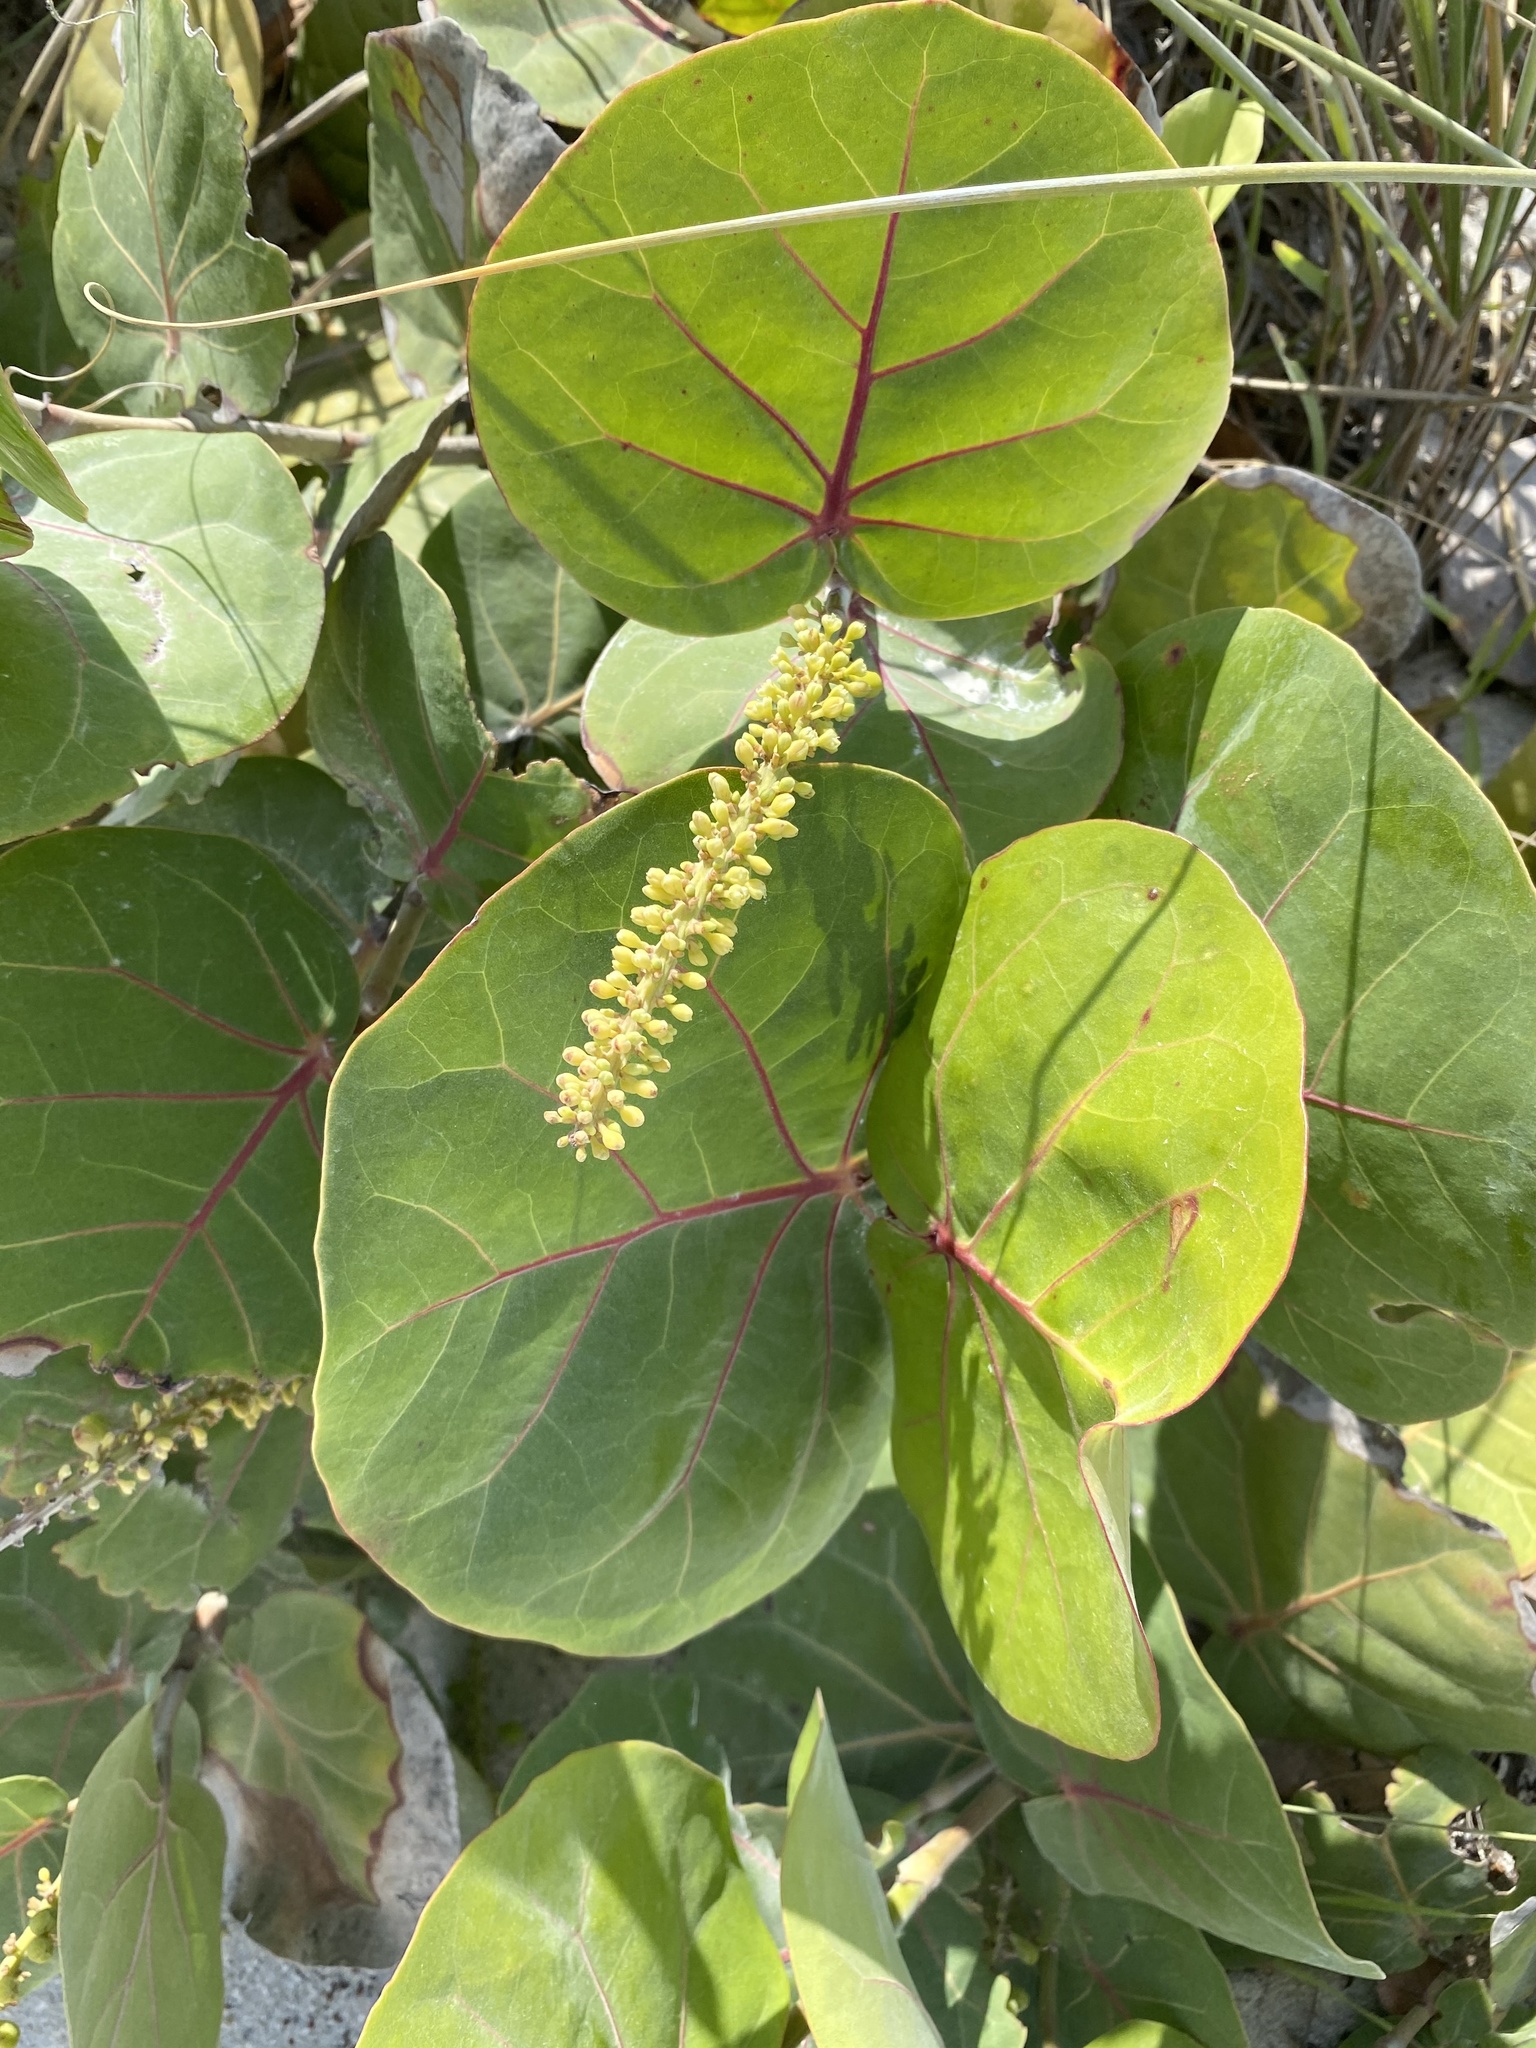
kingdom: Plantae
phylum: Tracheophyta
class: Magnoliopsida
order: Caryophyllales
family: Polygonaceae
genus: Coccoloba
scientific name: Coccoloba uvifera
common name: Seagrape
